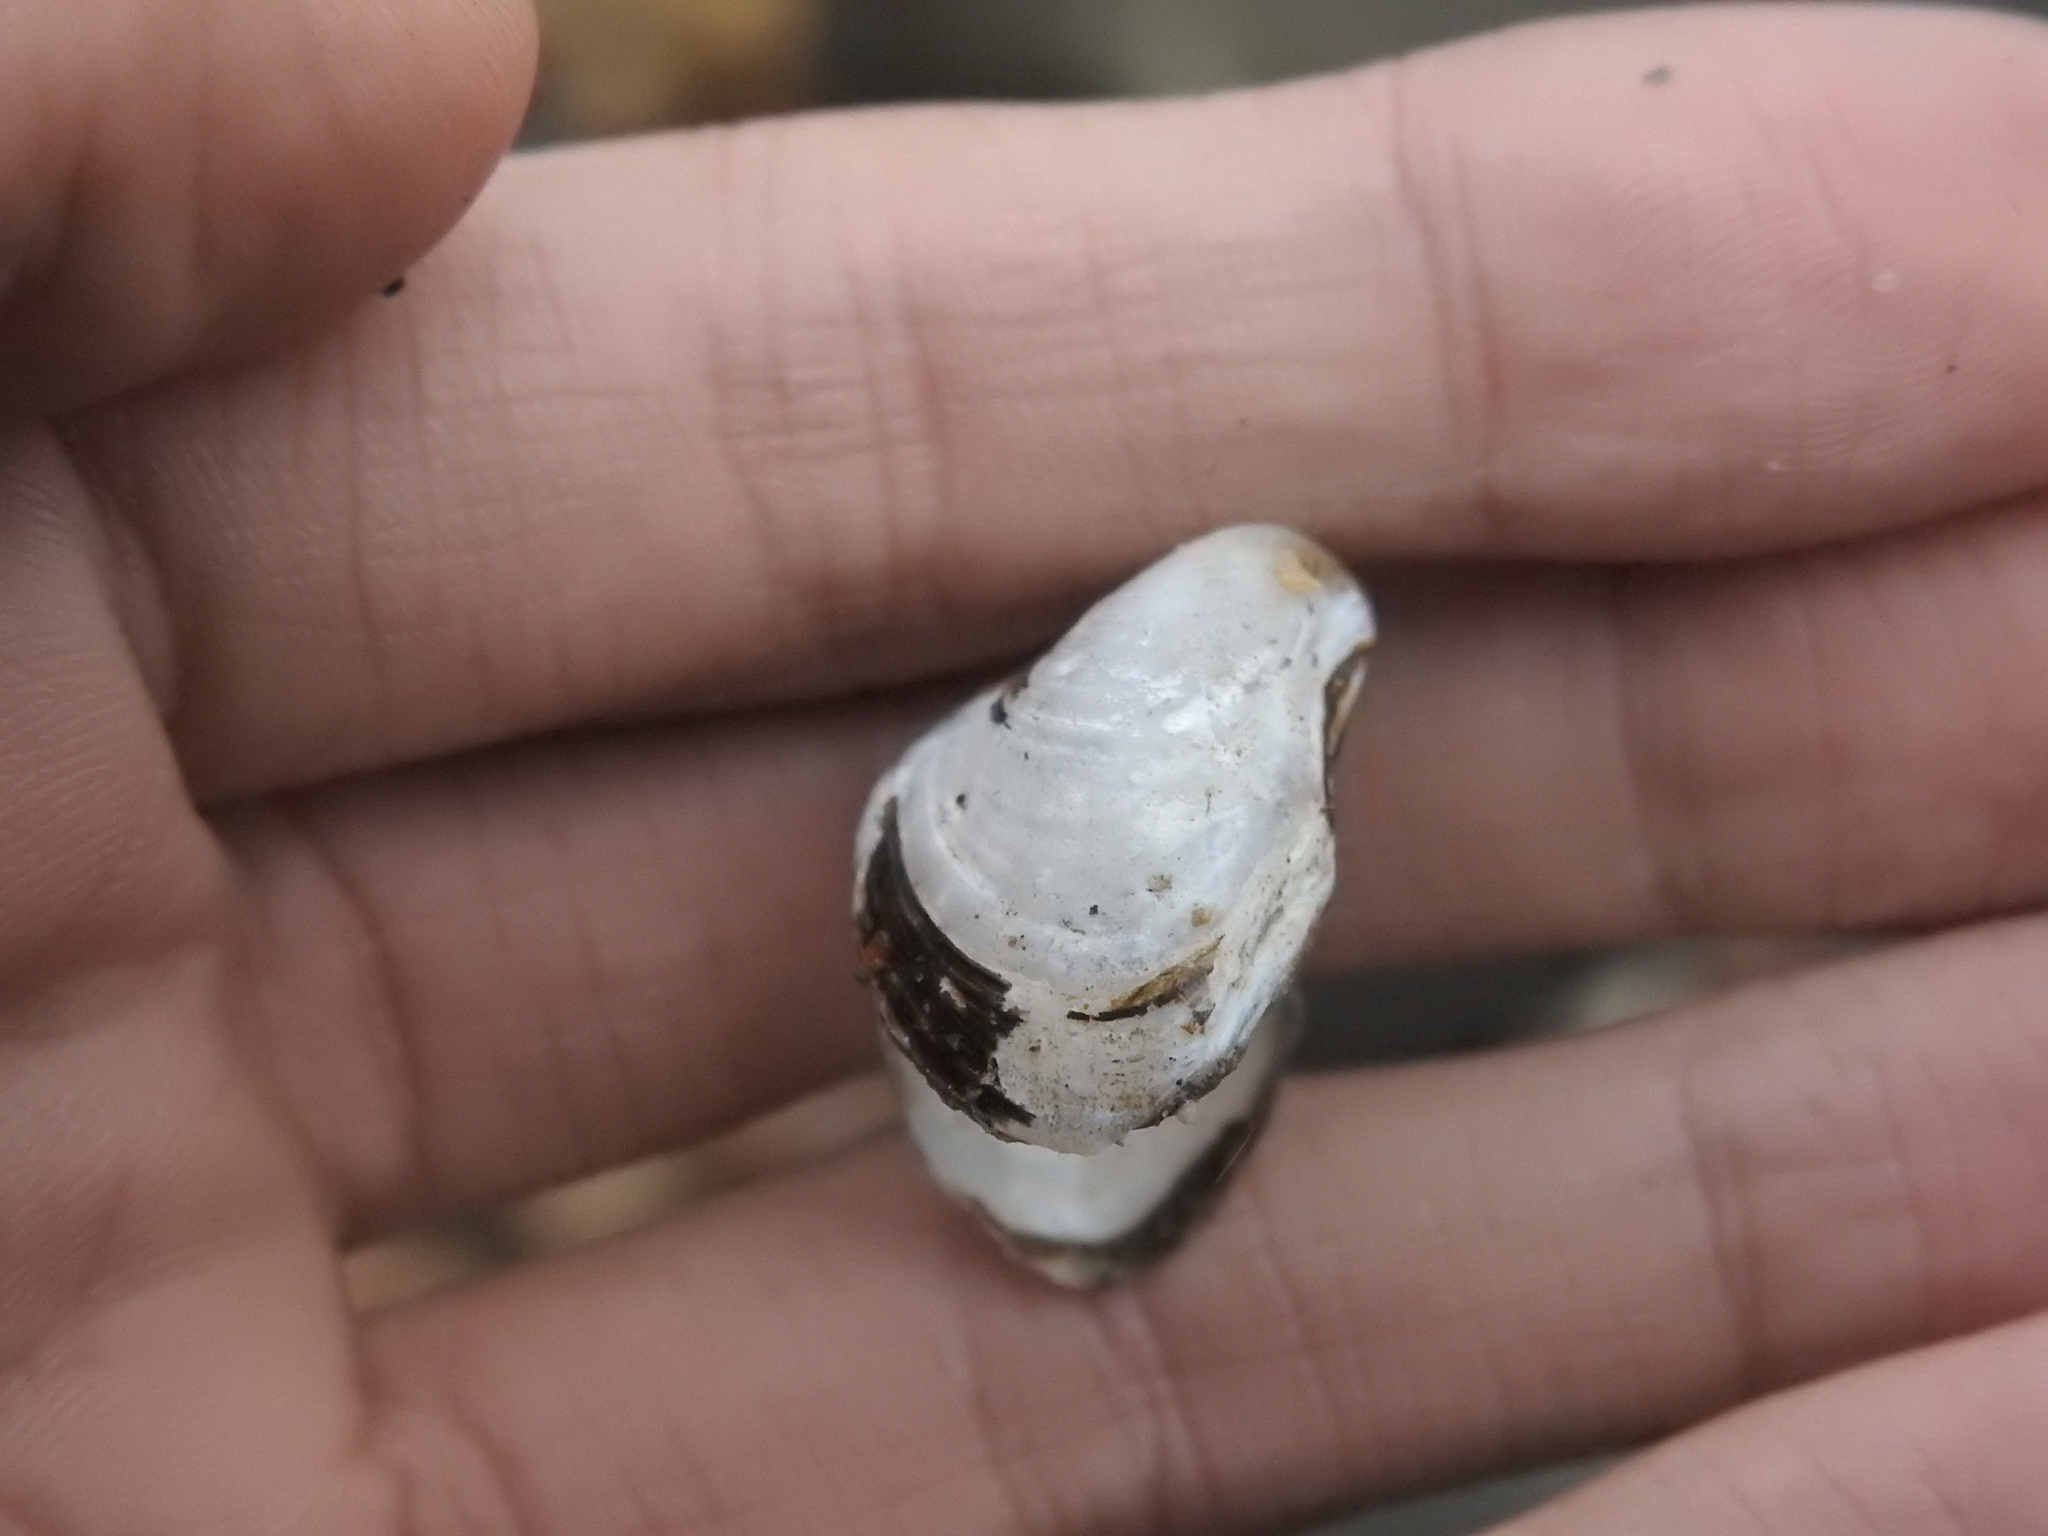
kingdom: Animalia
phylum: Mollusca
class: Bivalvia
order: Myida
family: Dreissenidae
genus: Dreissena
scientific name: Dreissena bugensis
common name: Quagga mussel
